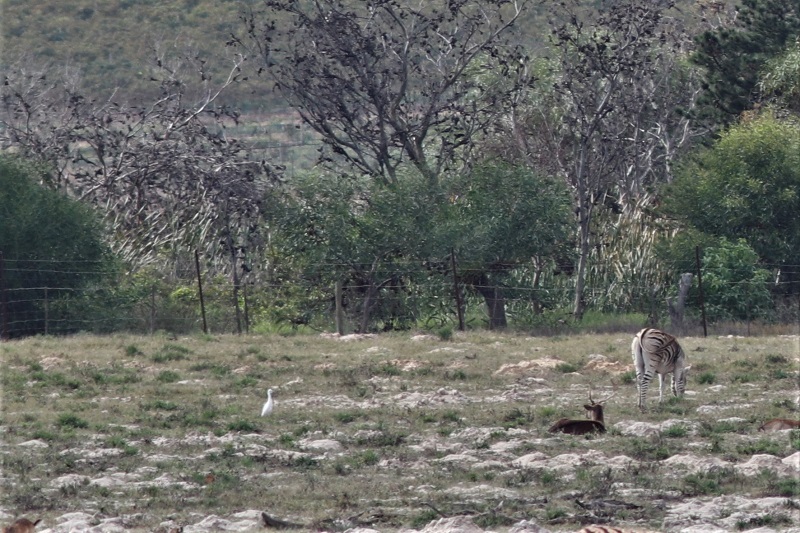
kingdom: Animalia
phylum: Chordata
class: Aves
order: Pelecaniformes
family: Ardeidae
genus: Bubulcus
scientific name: Bubulcus ibis
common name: Cattle egret
